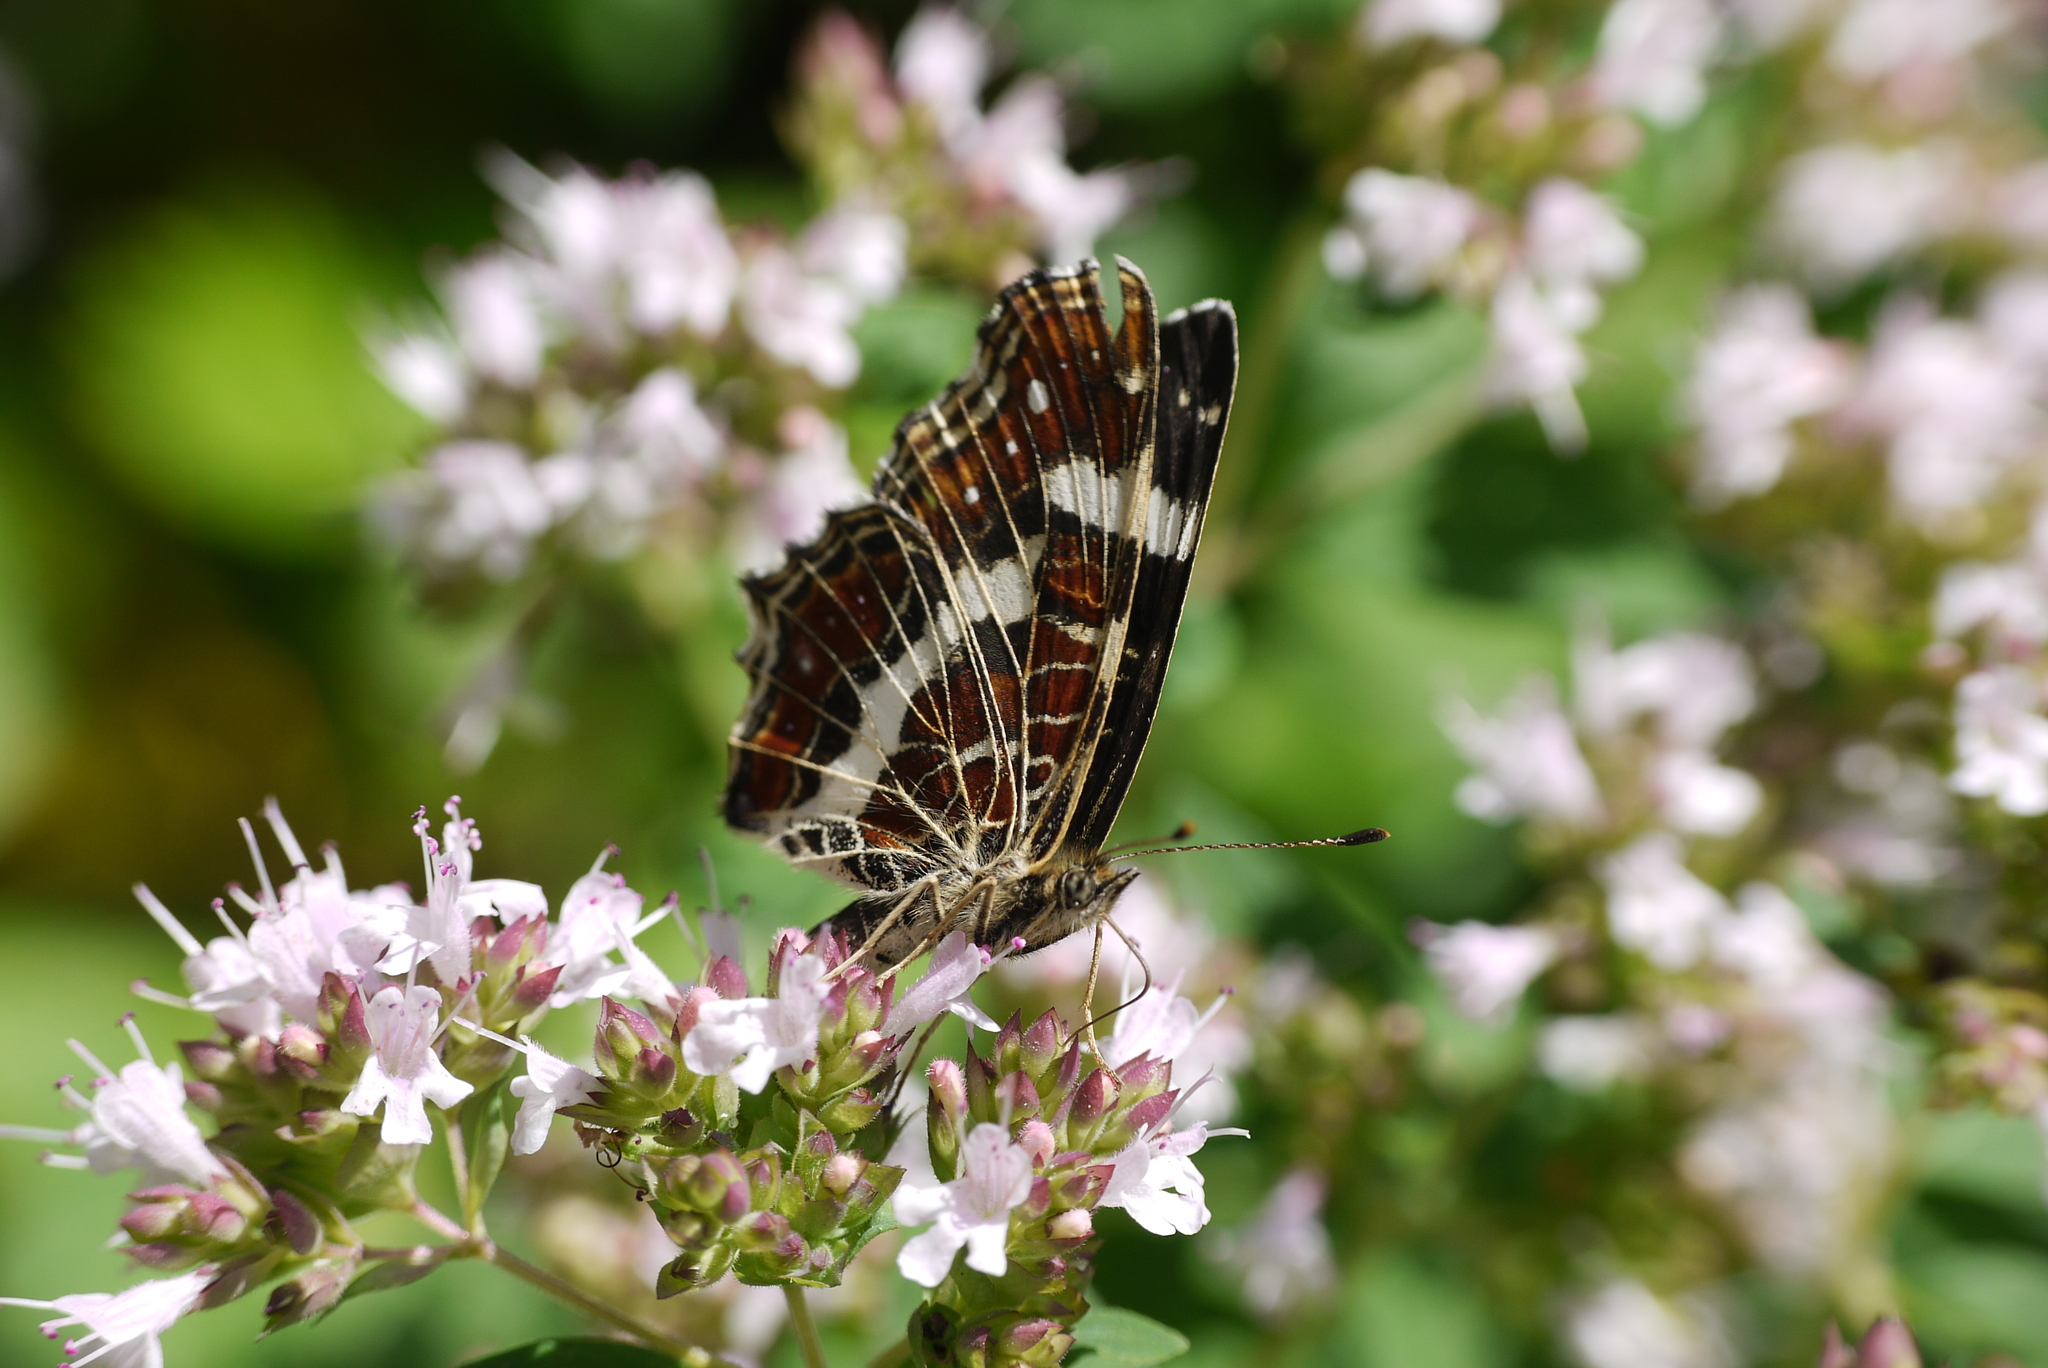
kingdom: Animalia
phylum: Arthropoda
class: Insecta
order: Lepidoptera
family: Nymphalidae
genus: Araschnia
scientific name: Araschnia levana
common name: Map butterfly
